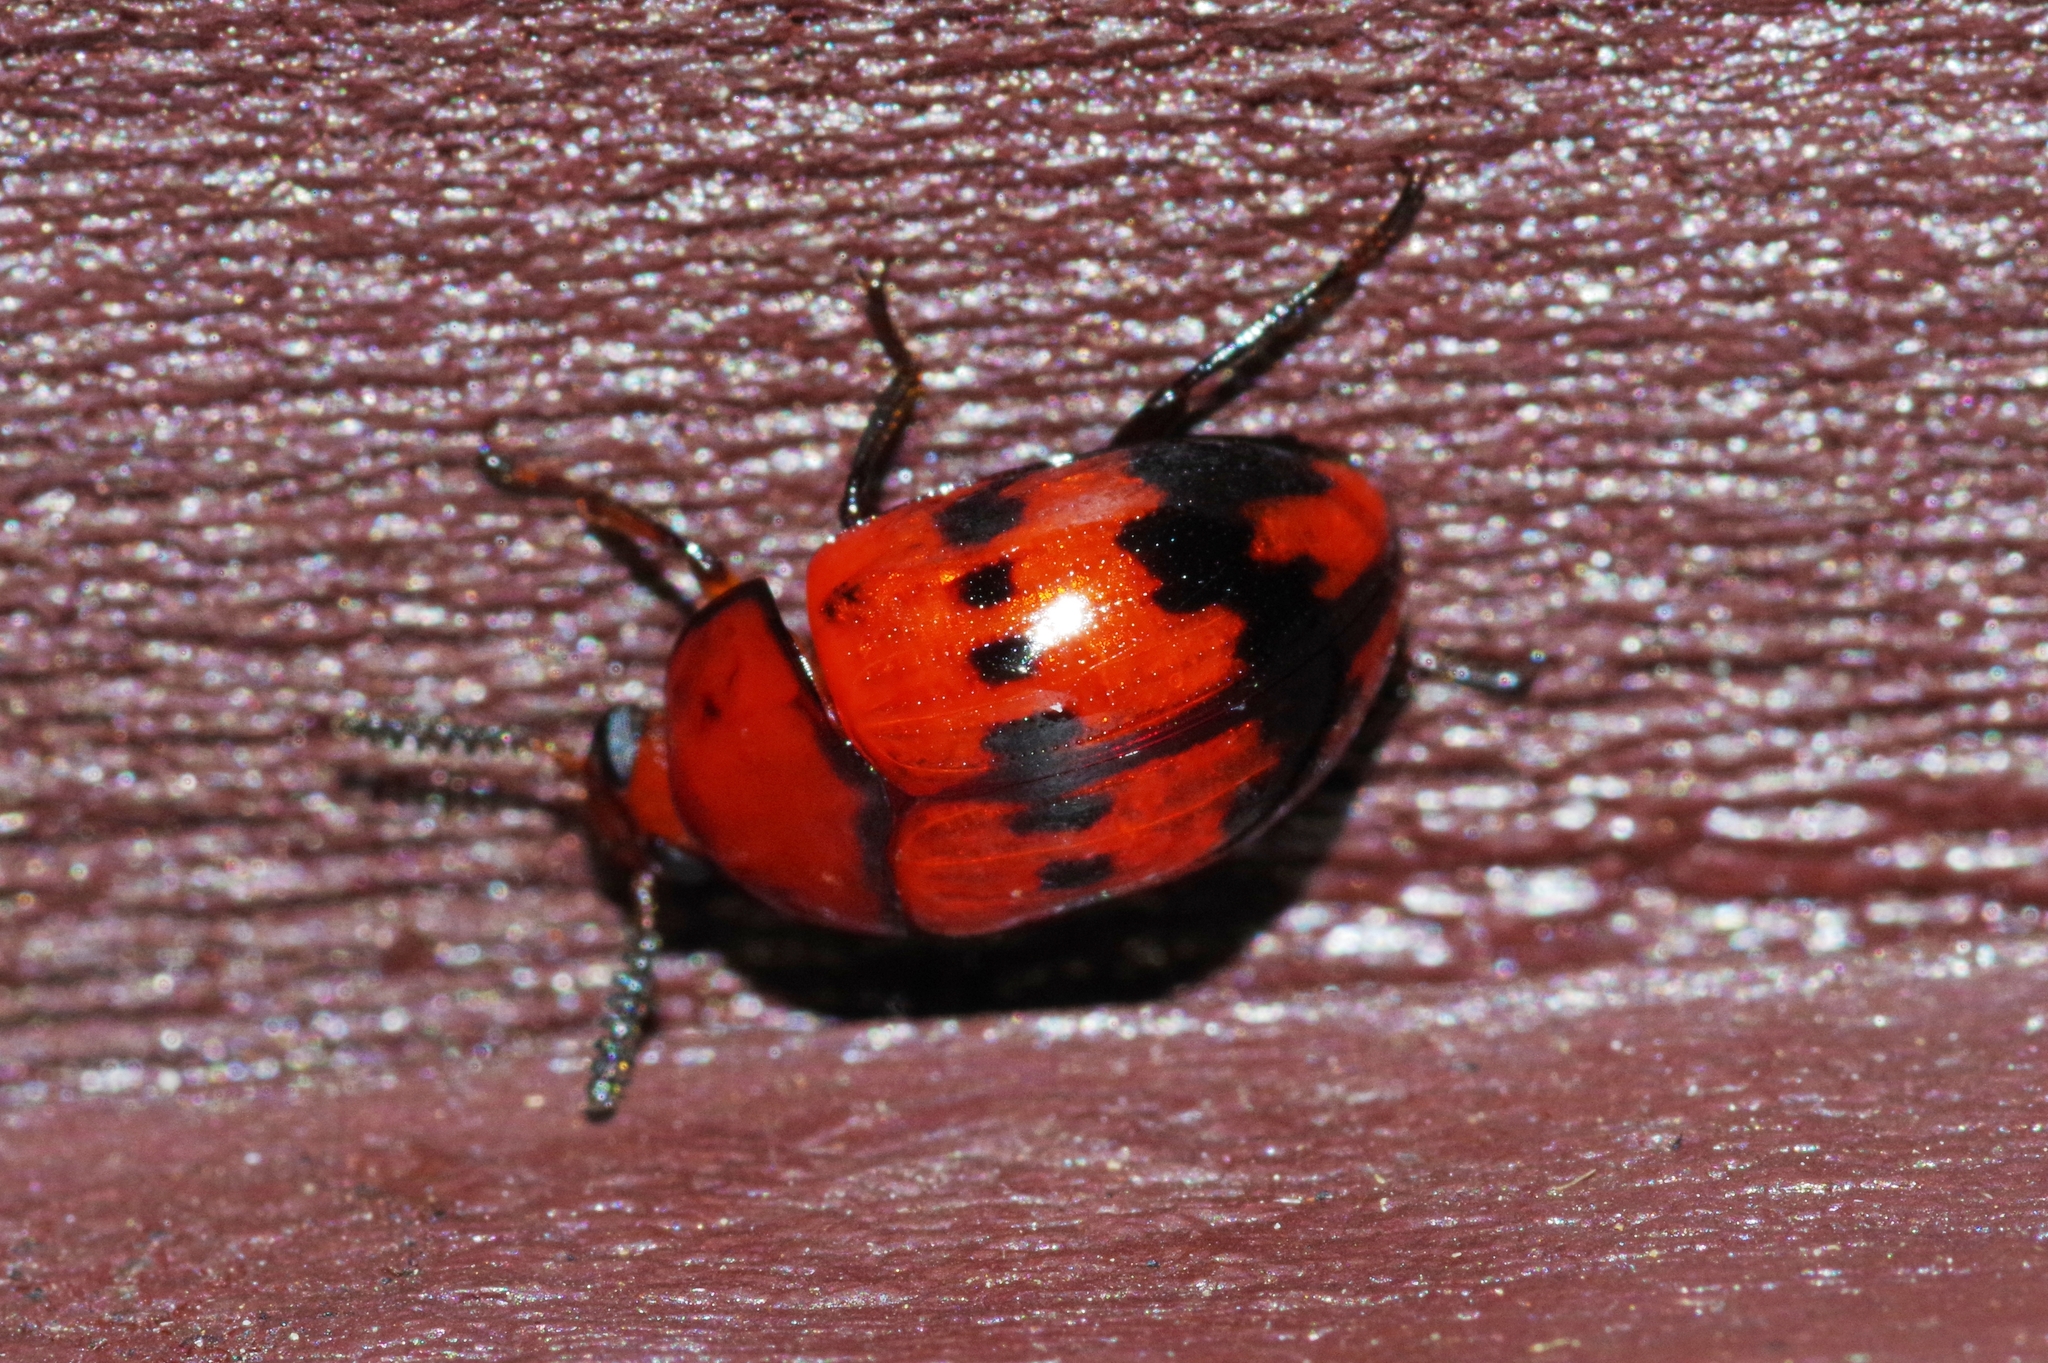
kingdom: Animalia
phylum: Arthropoda
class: Insecta
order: Coleoptera
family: Tenebrionidae
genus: Diaperis
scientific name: Diaperis lewisi
